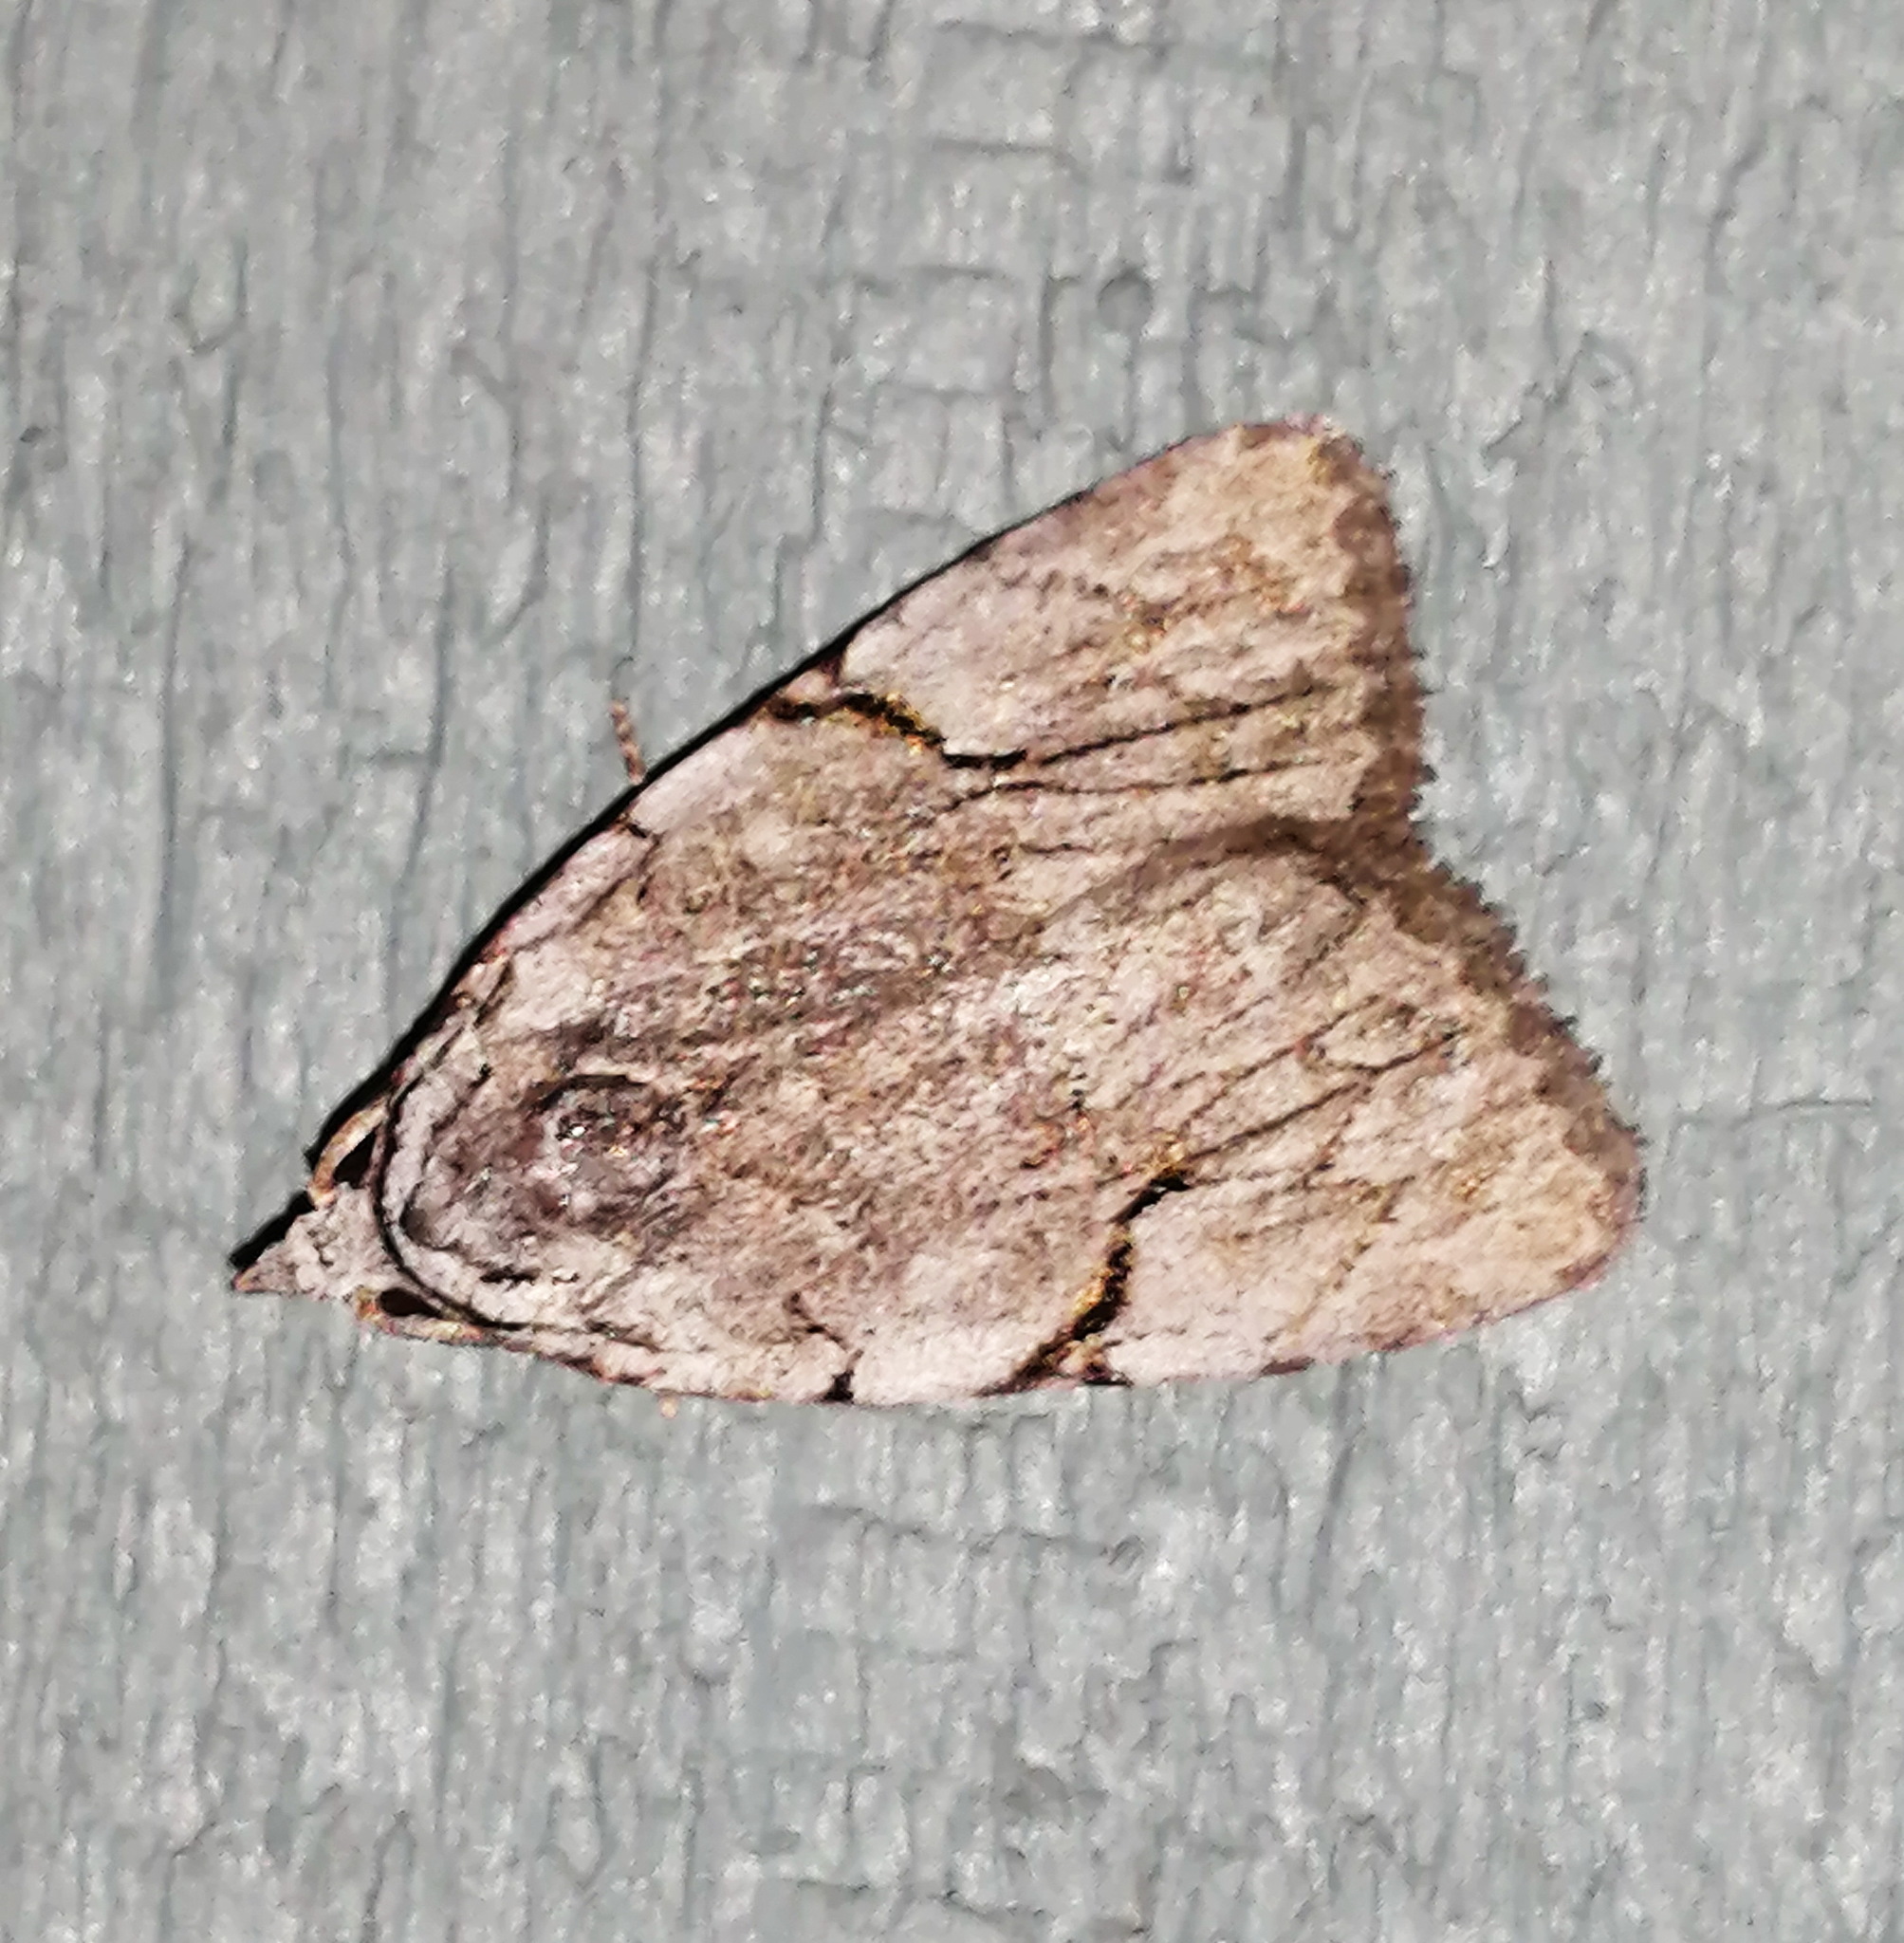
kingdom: Animalia
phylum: Arthropoda
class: Insecta
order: Lepidoptera
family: Noctuidae
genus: Balsa
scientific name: Balsa malana
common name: Many-dotted appleworm moth
